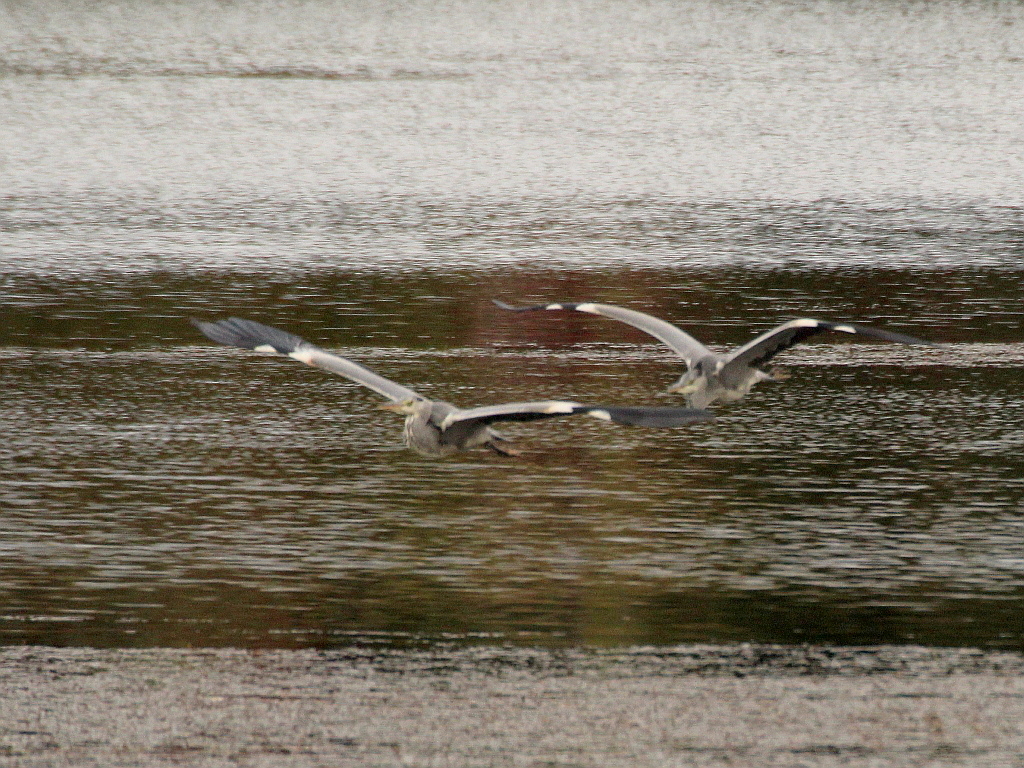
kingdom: Animalia
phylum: Chordata
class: Aves
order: Pelecaniformes
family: Ardeidae
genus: Ardea
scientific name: Ardea cinerea
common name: Grey heron
